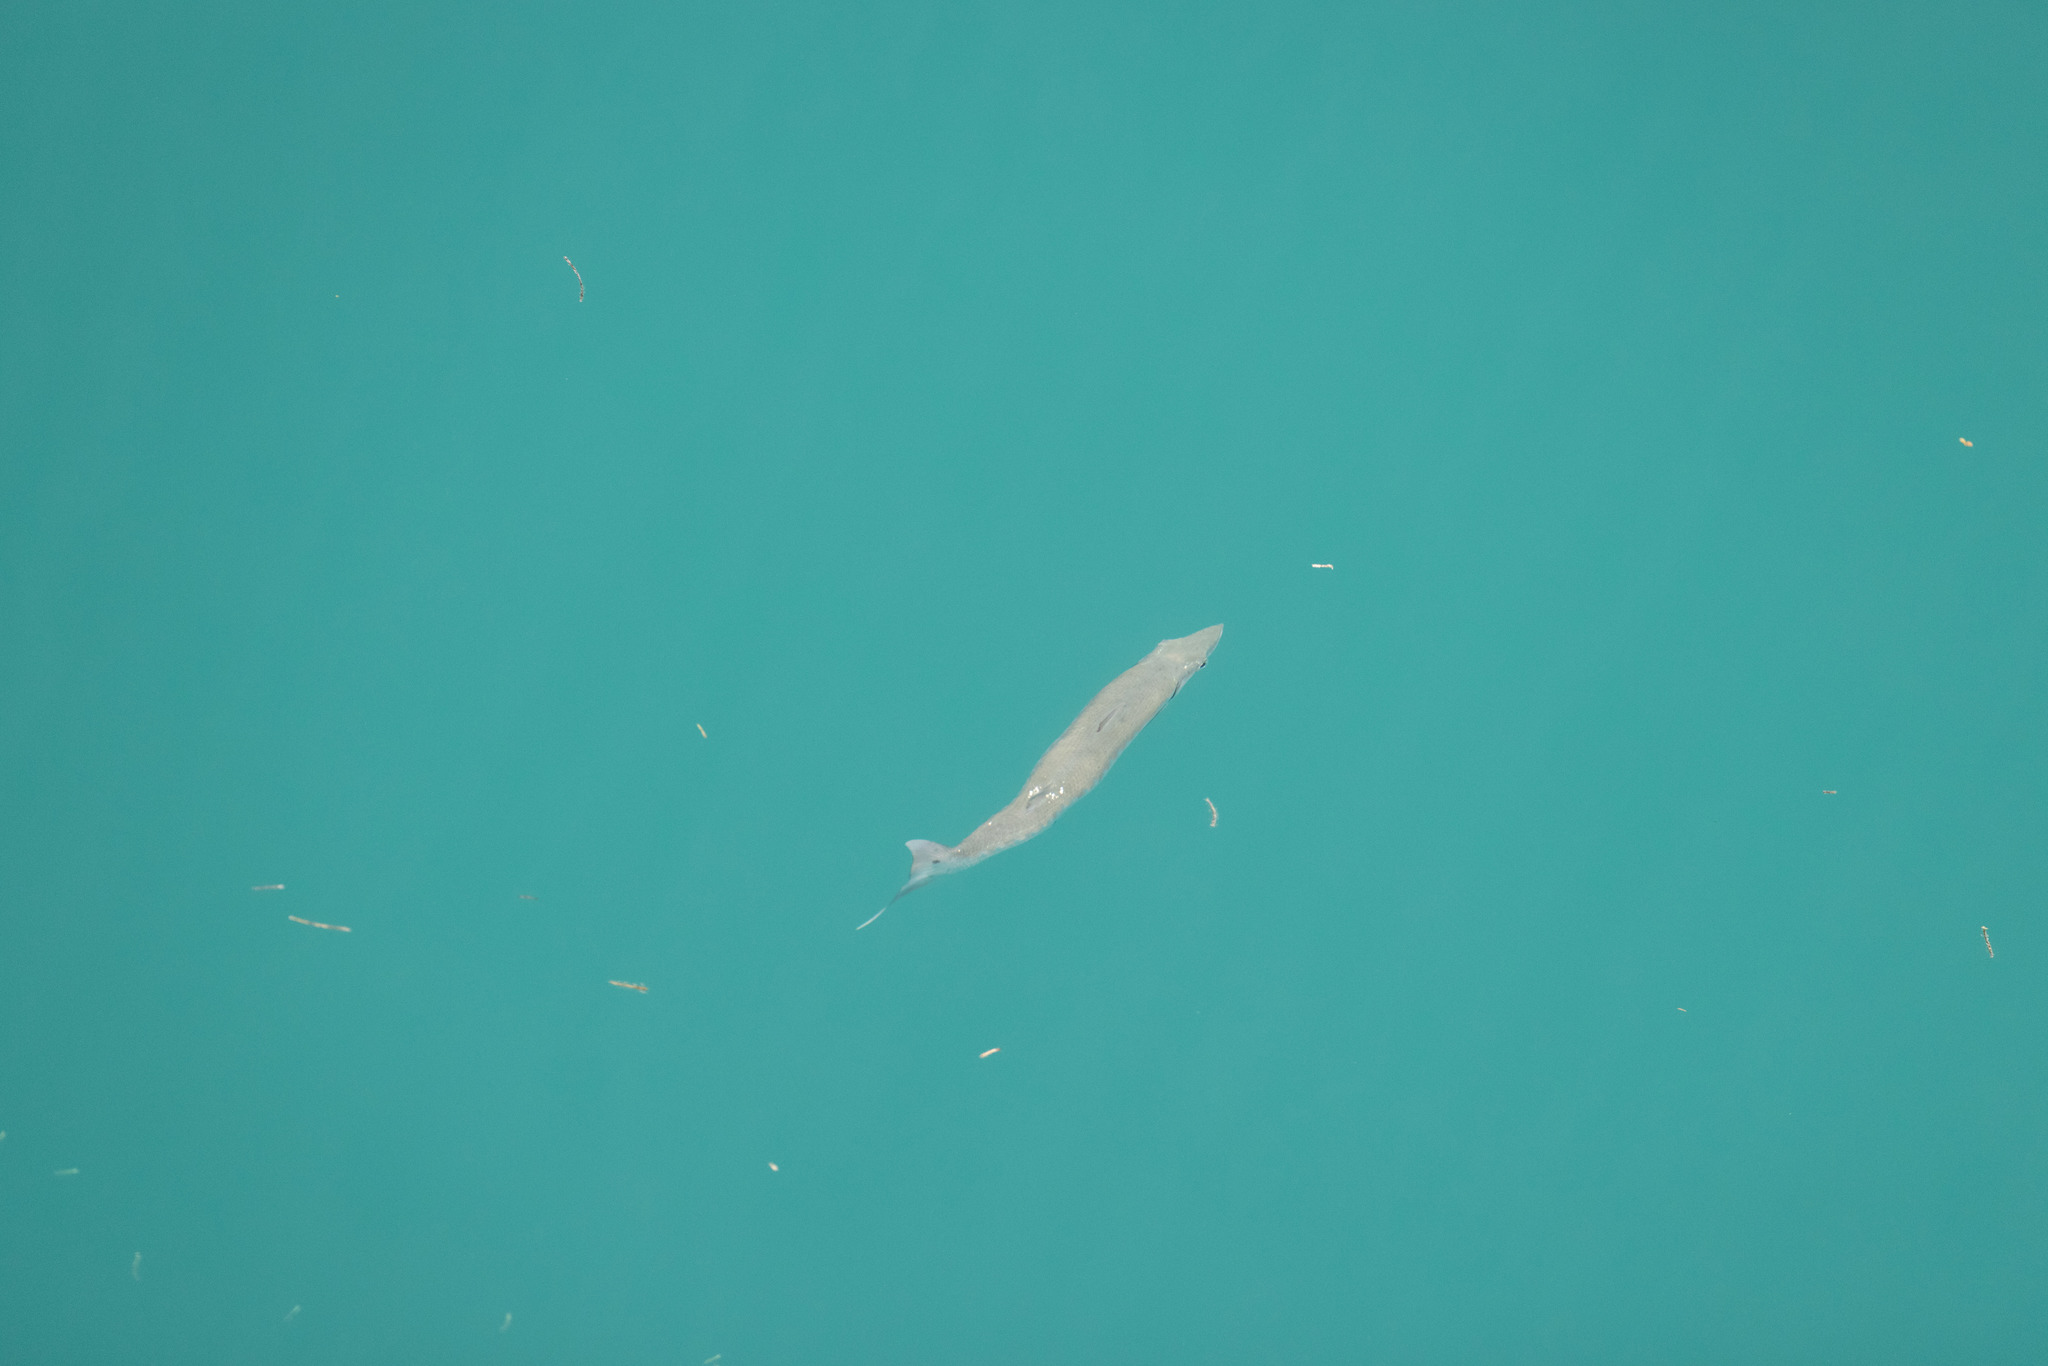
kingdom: Animalia
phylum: Chordata
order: Perciformes
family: Sphyraenidae
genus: Sphyraena
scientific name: Sphyraena barracuda
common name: Great barracuda
